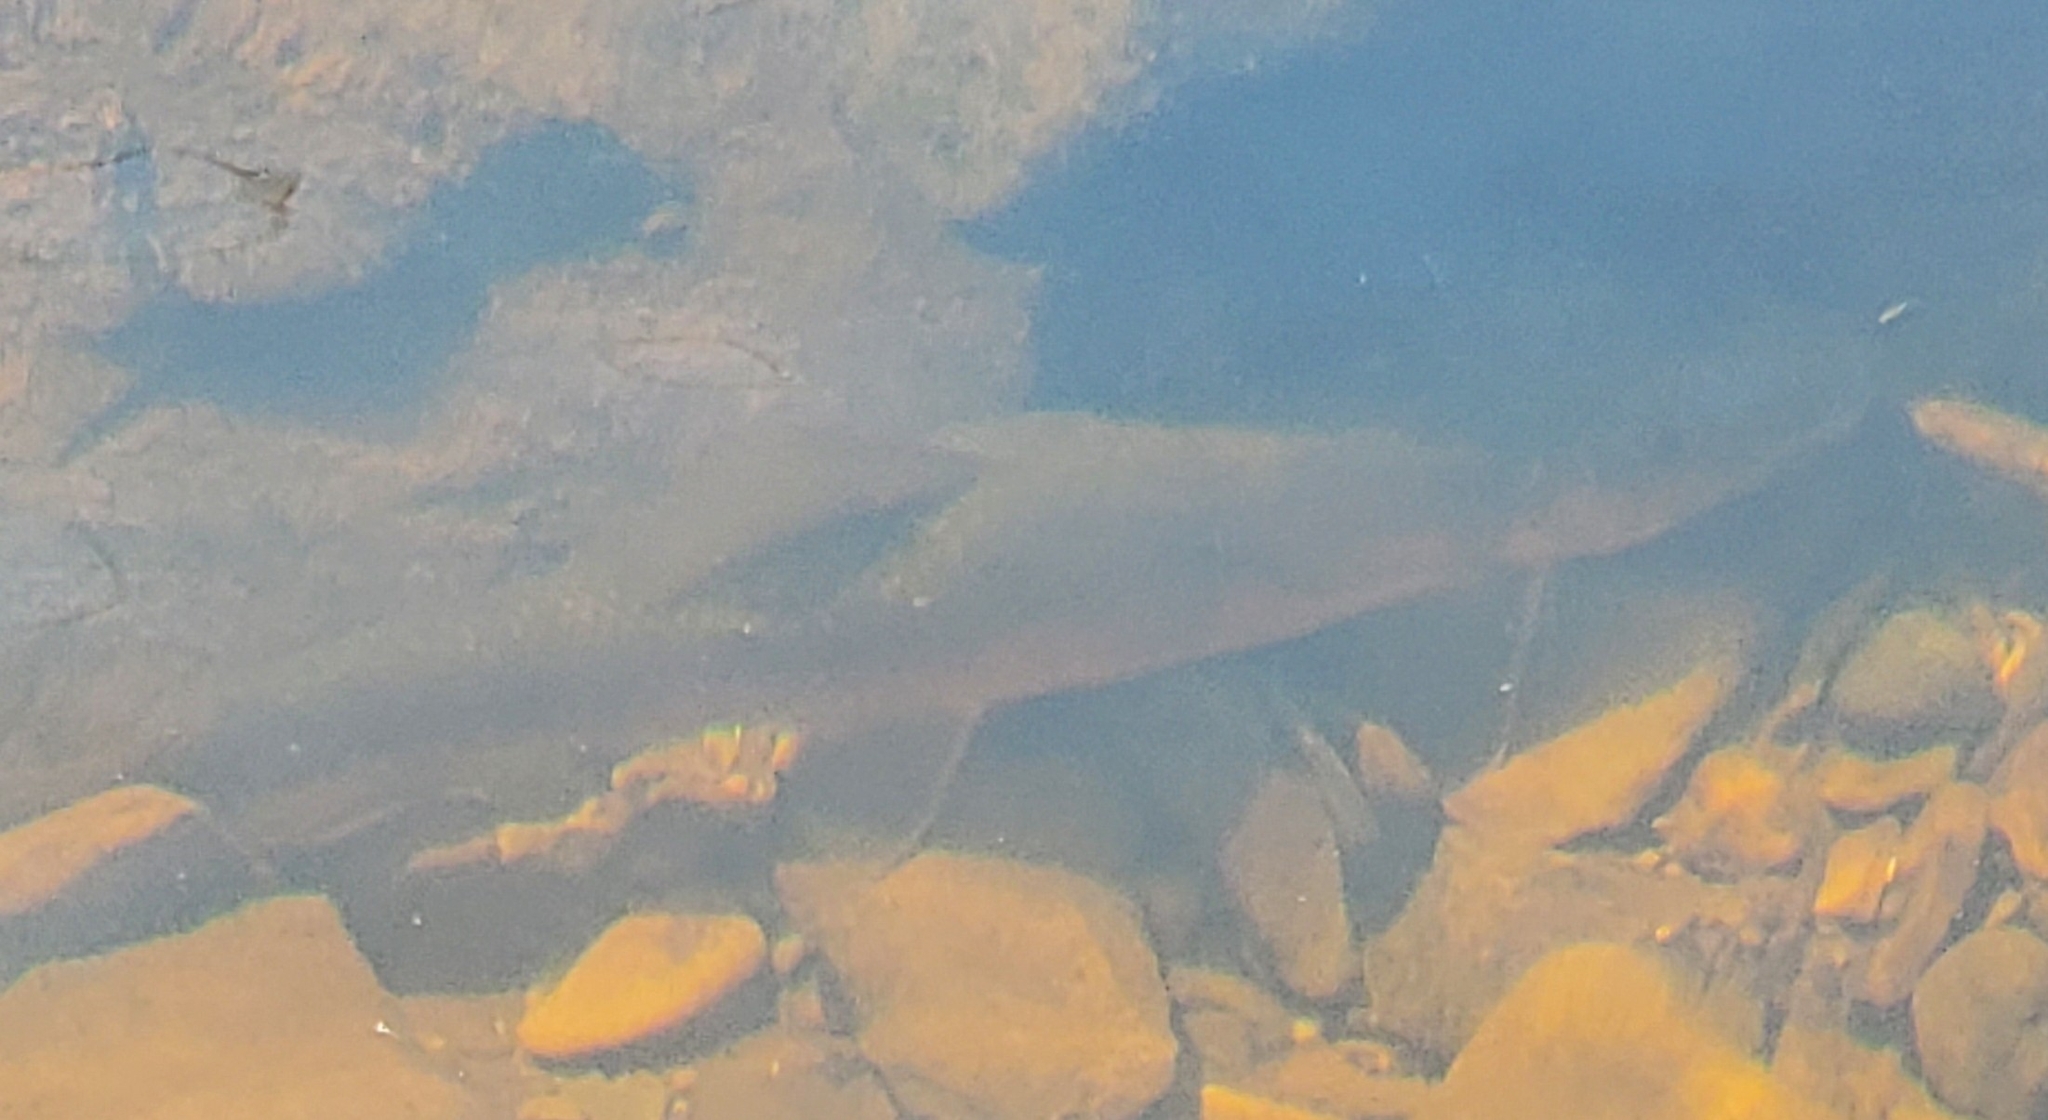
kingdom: Animalia
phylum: Chordata
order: Cypriniformes
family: Catostomidae
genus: Catostomus
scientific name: Catostomus commersonii
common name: White sucker
